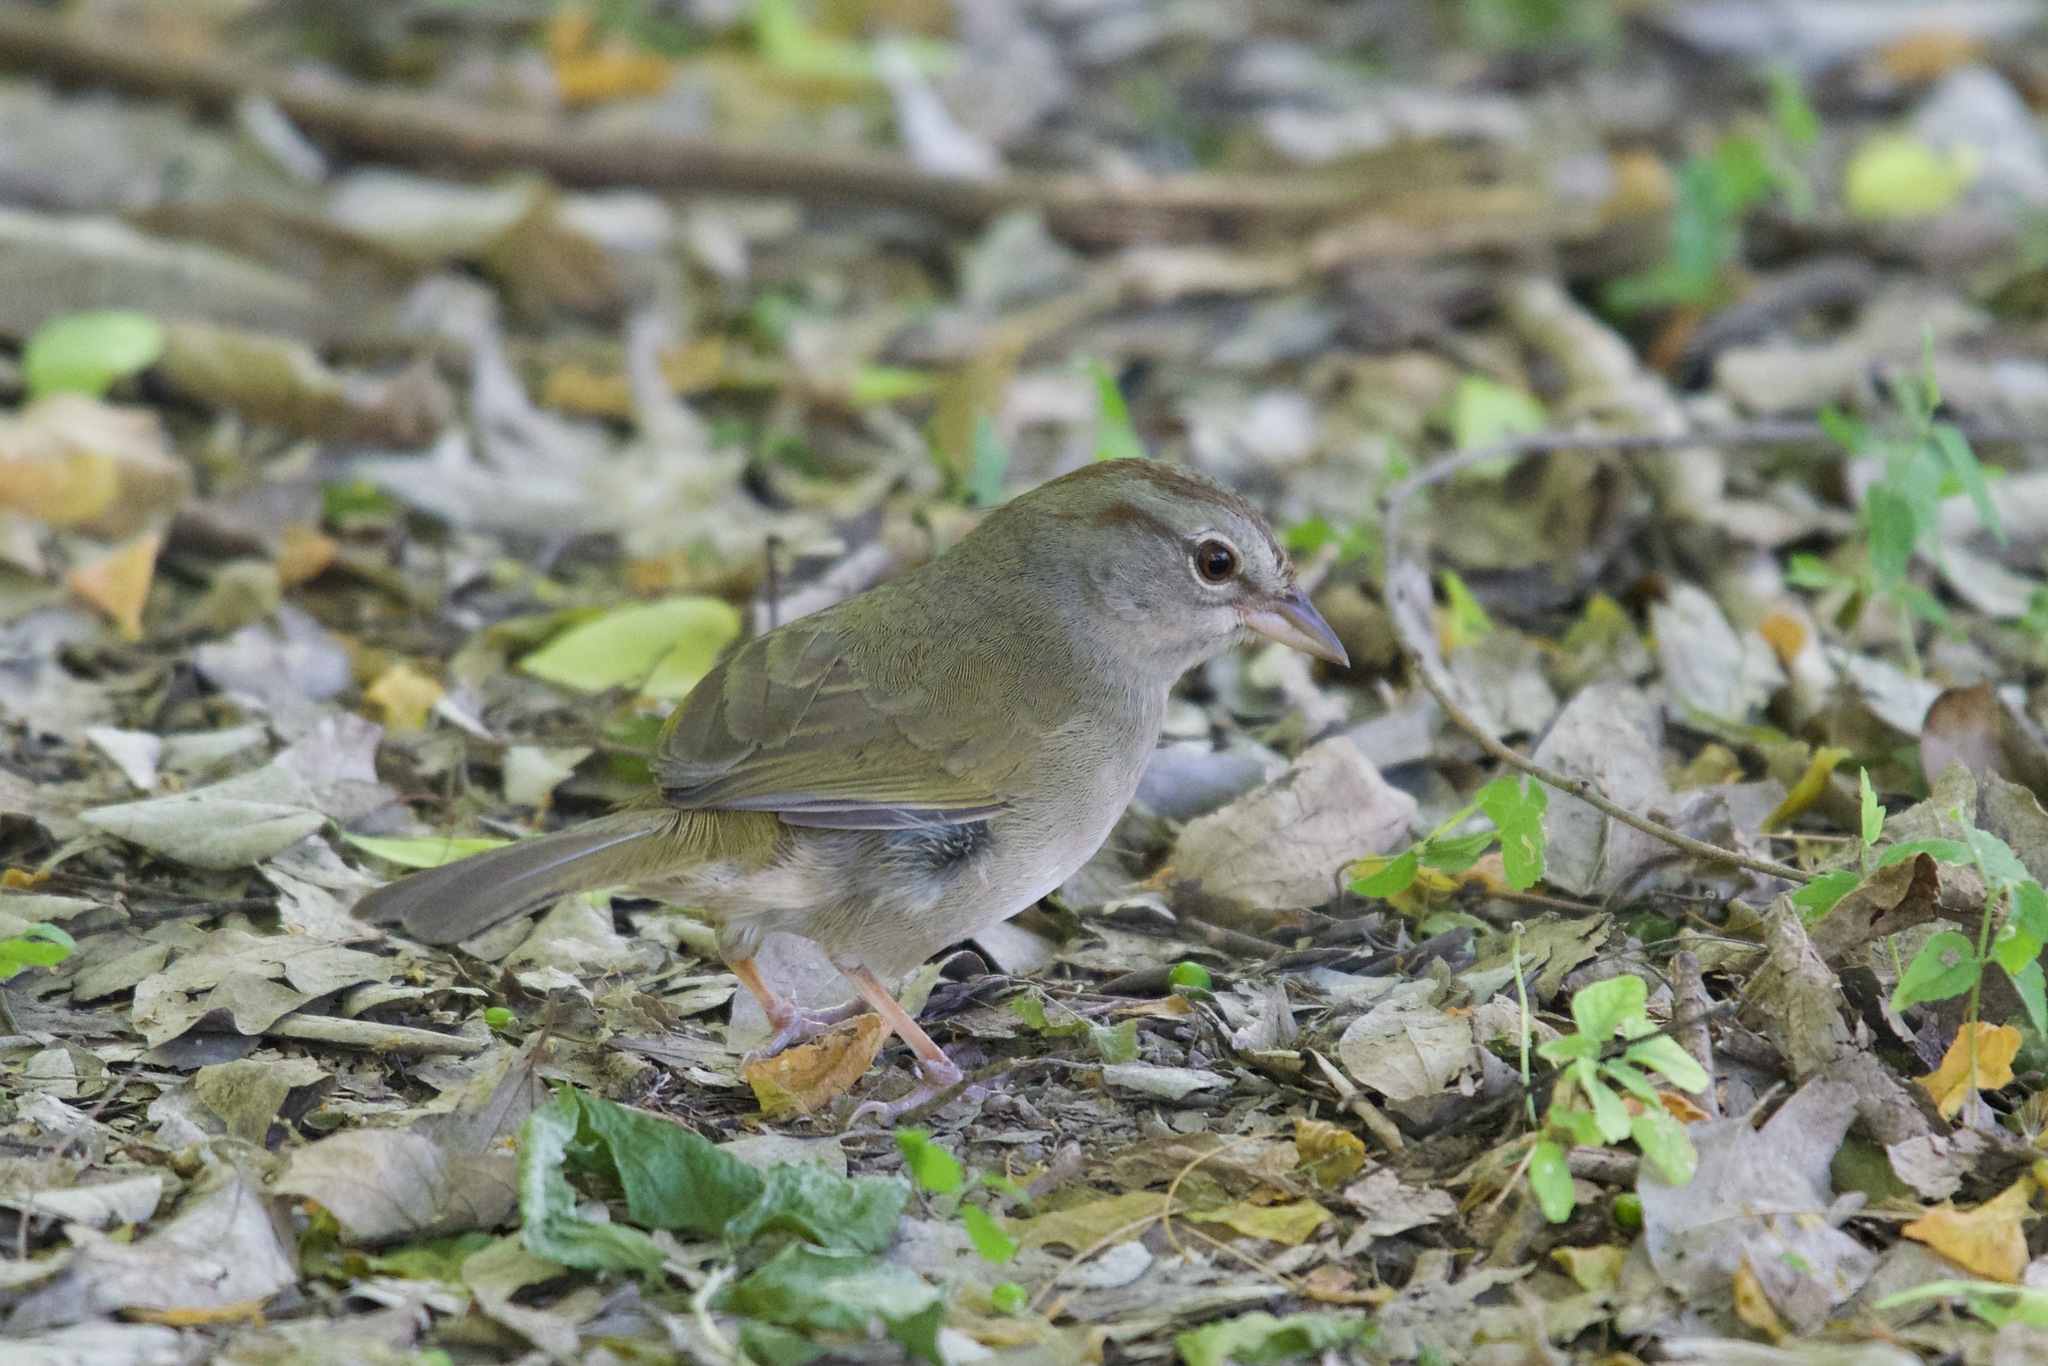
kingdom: Animalia
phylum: Chordata
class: Aves
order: Passeriformes
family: Passerellidae
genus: Arremonops
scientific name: Arremonops rufivirgatus
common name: Olive sparrow
